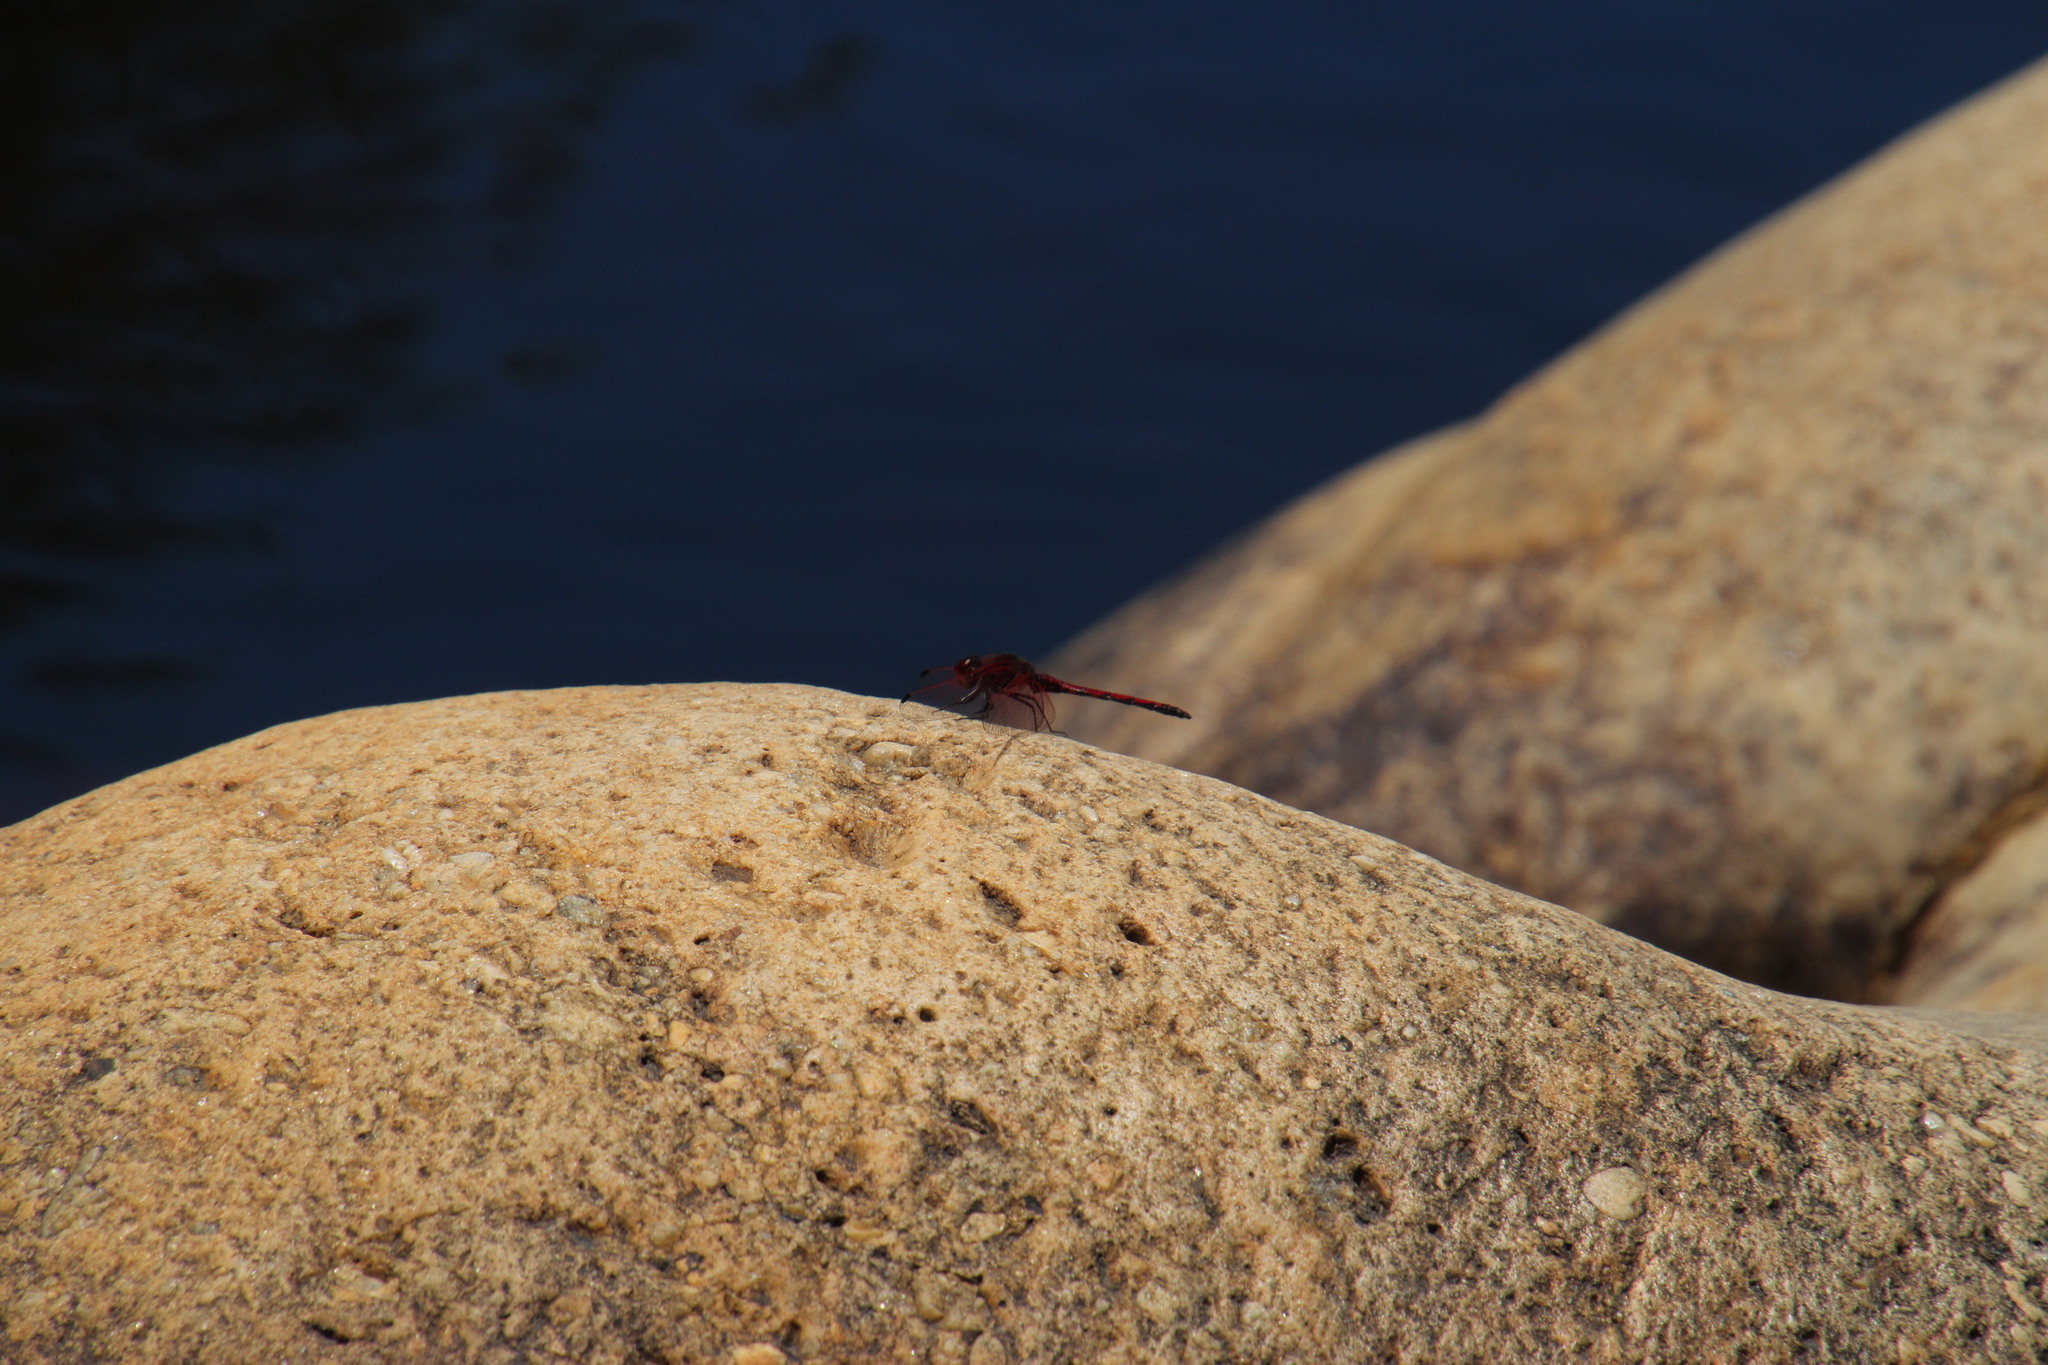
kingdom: Animalia
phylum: Arthropoda
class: Insecta
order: Odonata
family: Libellulidae
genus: Trithemis
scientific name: Trithemis arteriosa
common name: Red-veined dropwing
